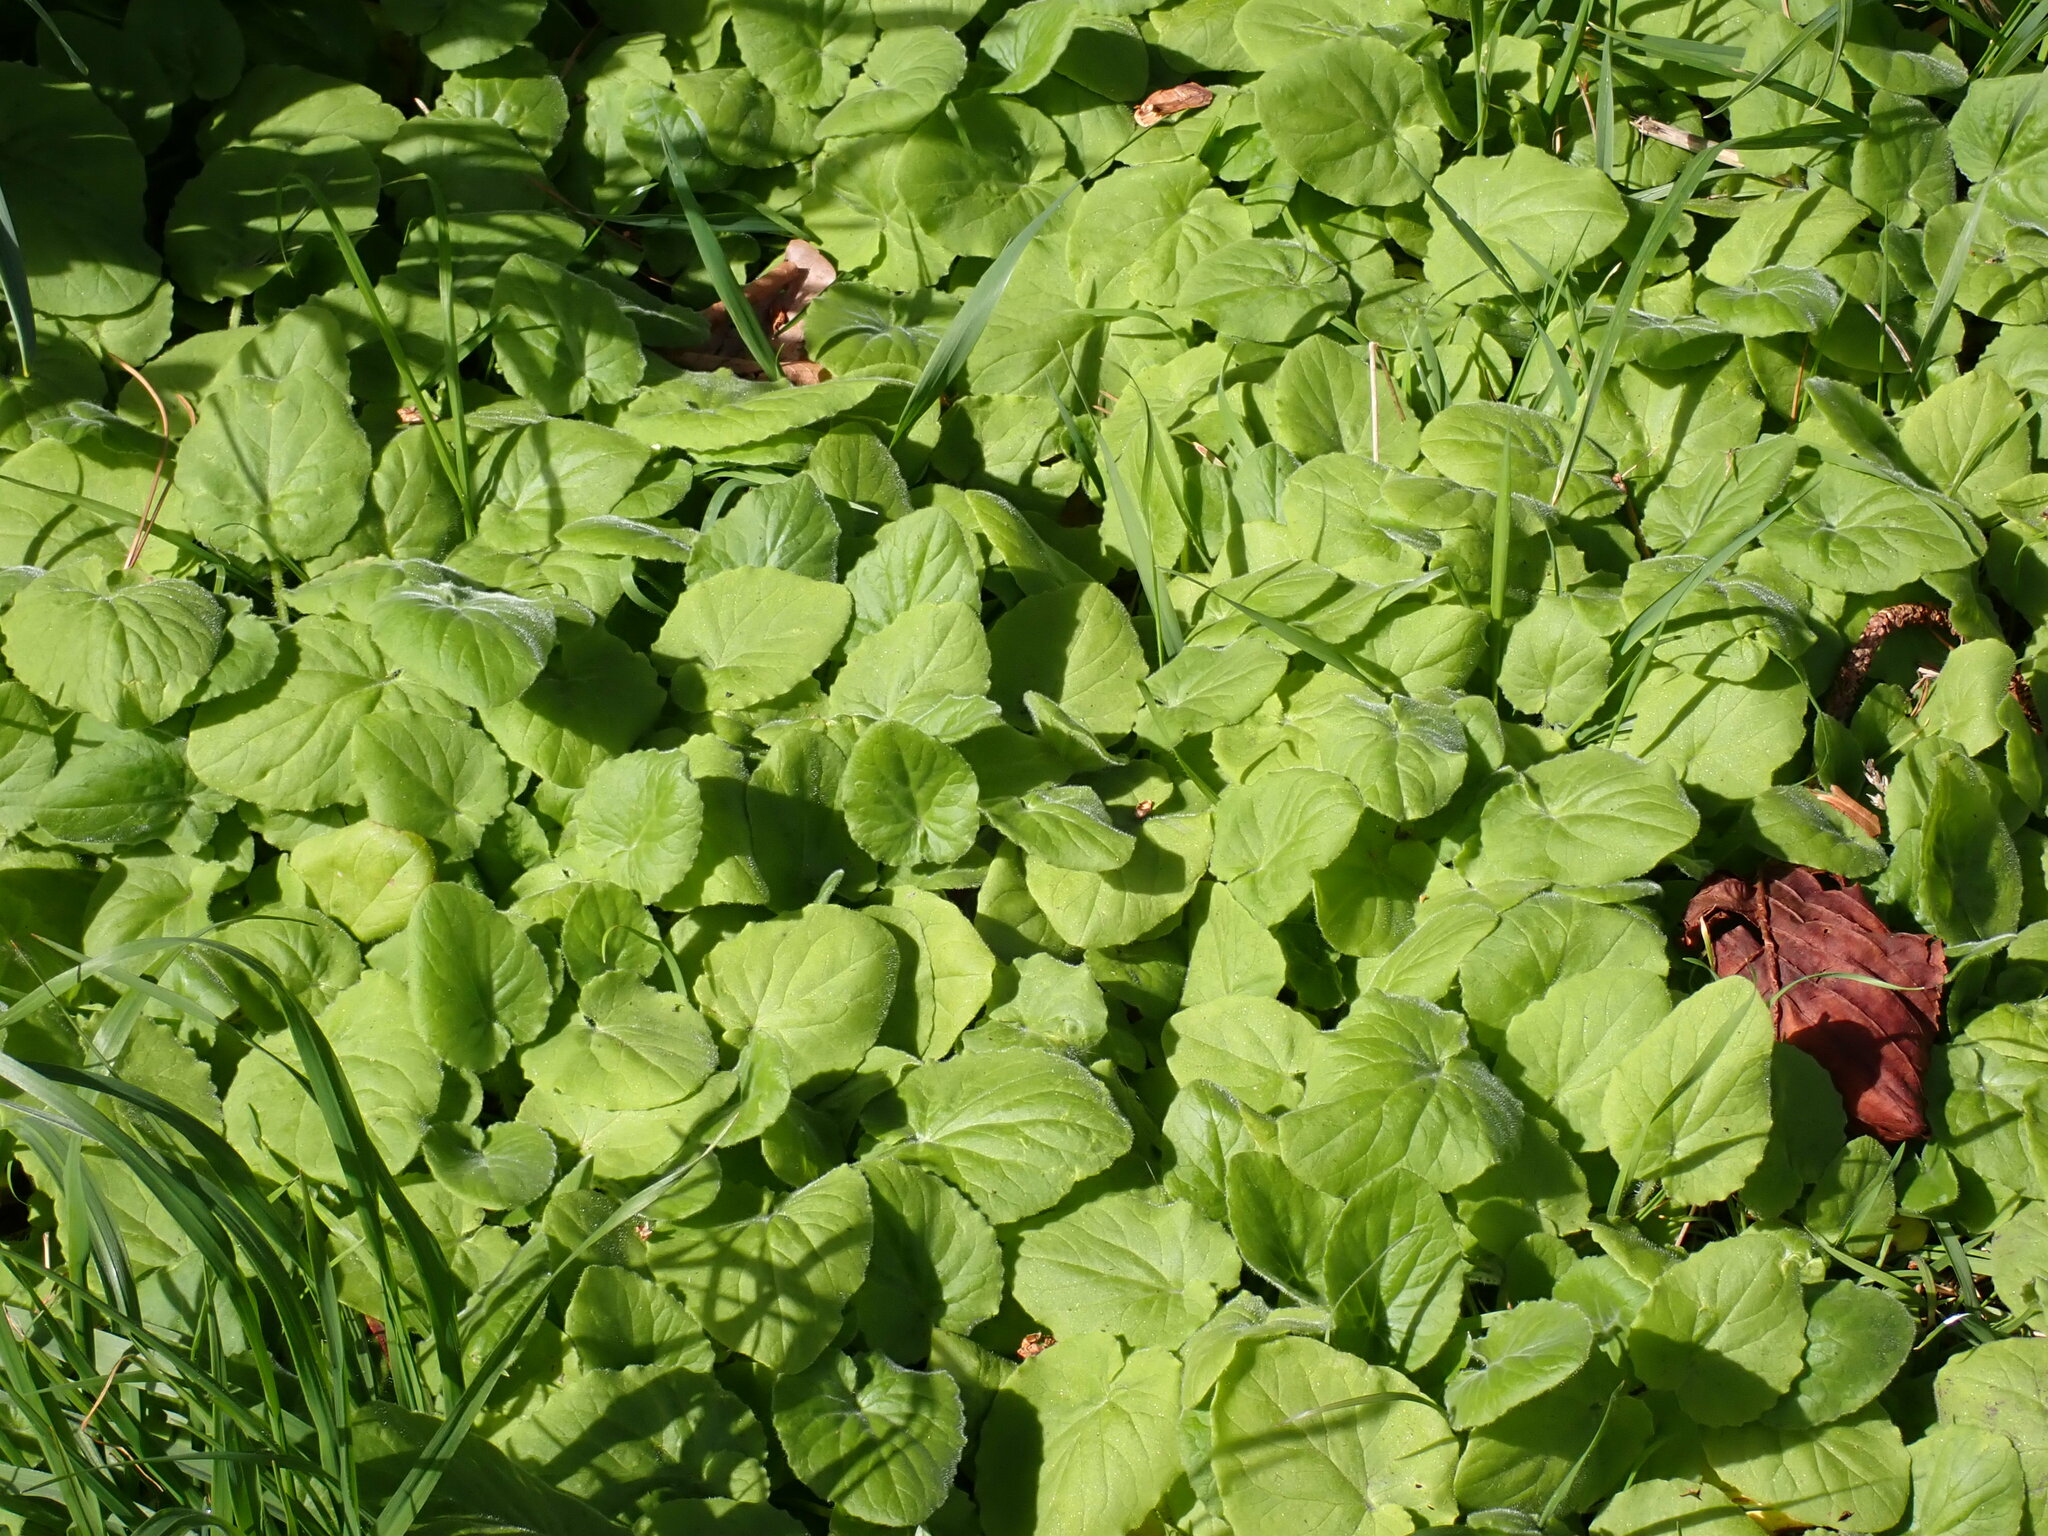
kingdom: Plantae
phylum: Tracheophyta
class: Magnoliopsida
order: Asterales
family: Asteraceae
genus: Doronicum
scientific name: Doronicum pardalianches
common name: Leopard's-bane
